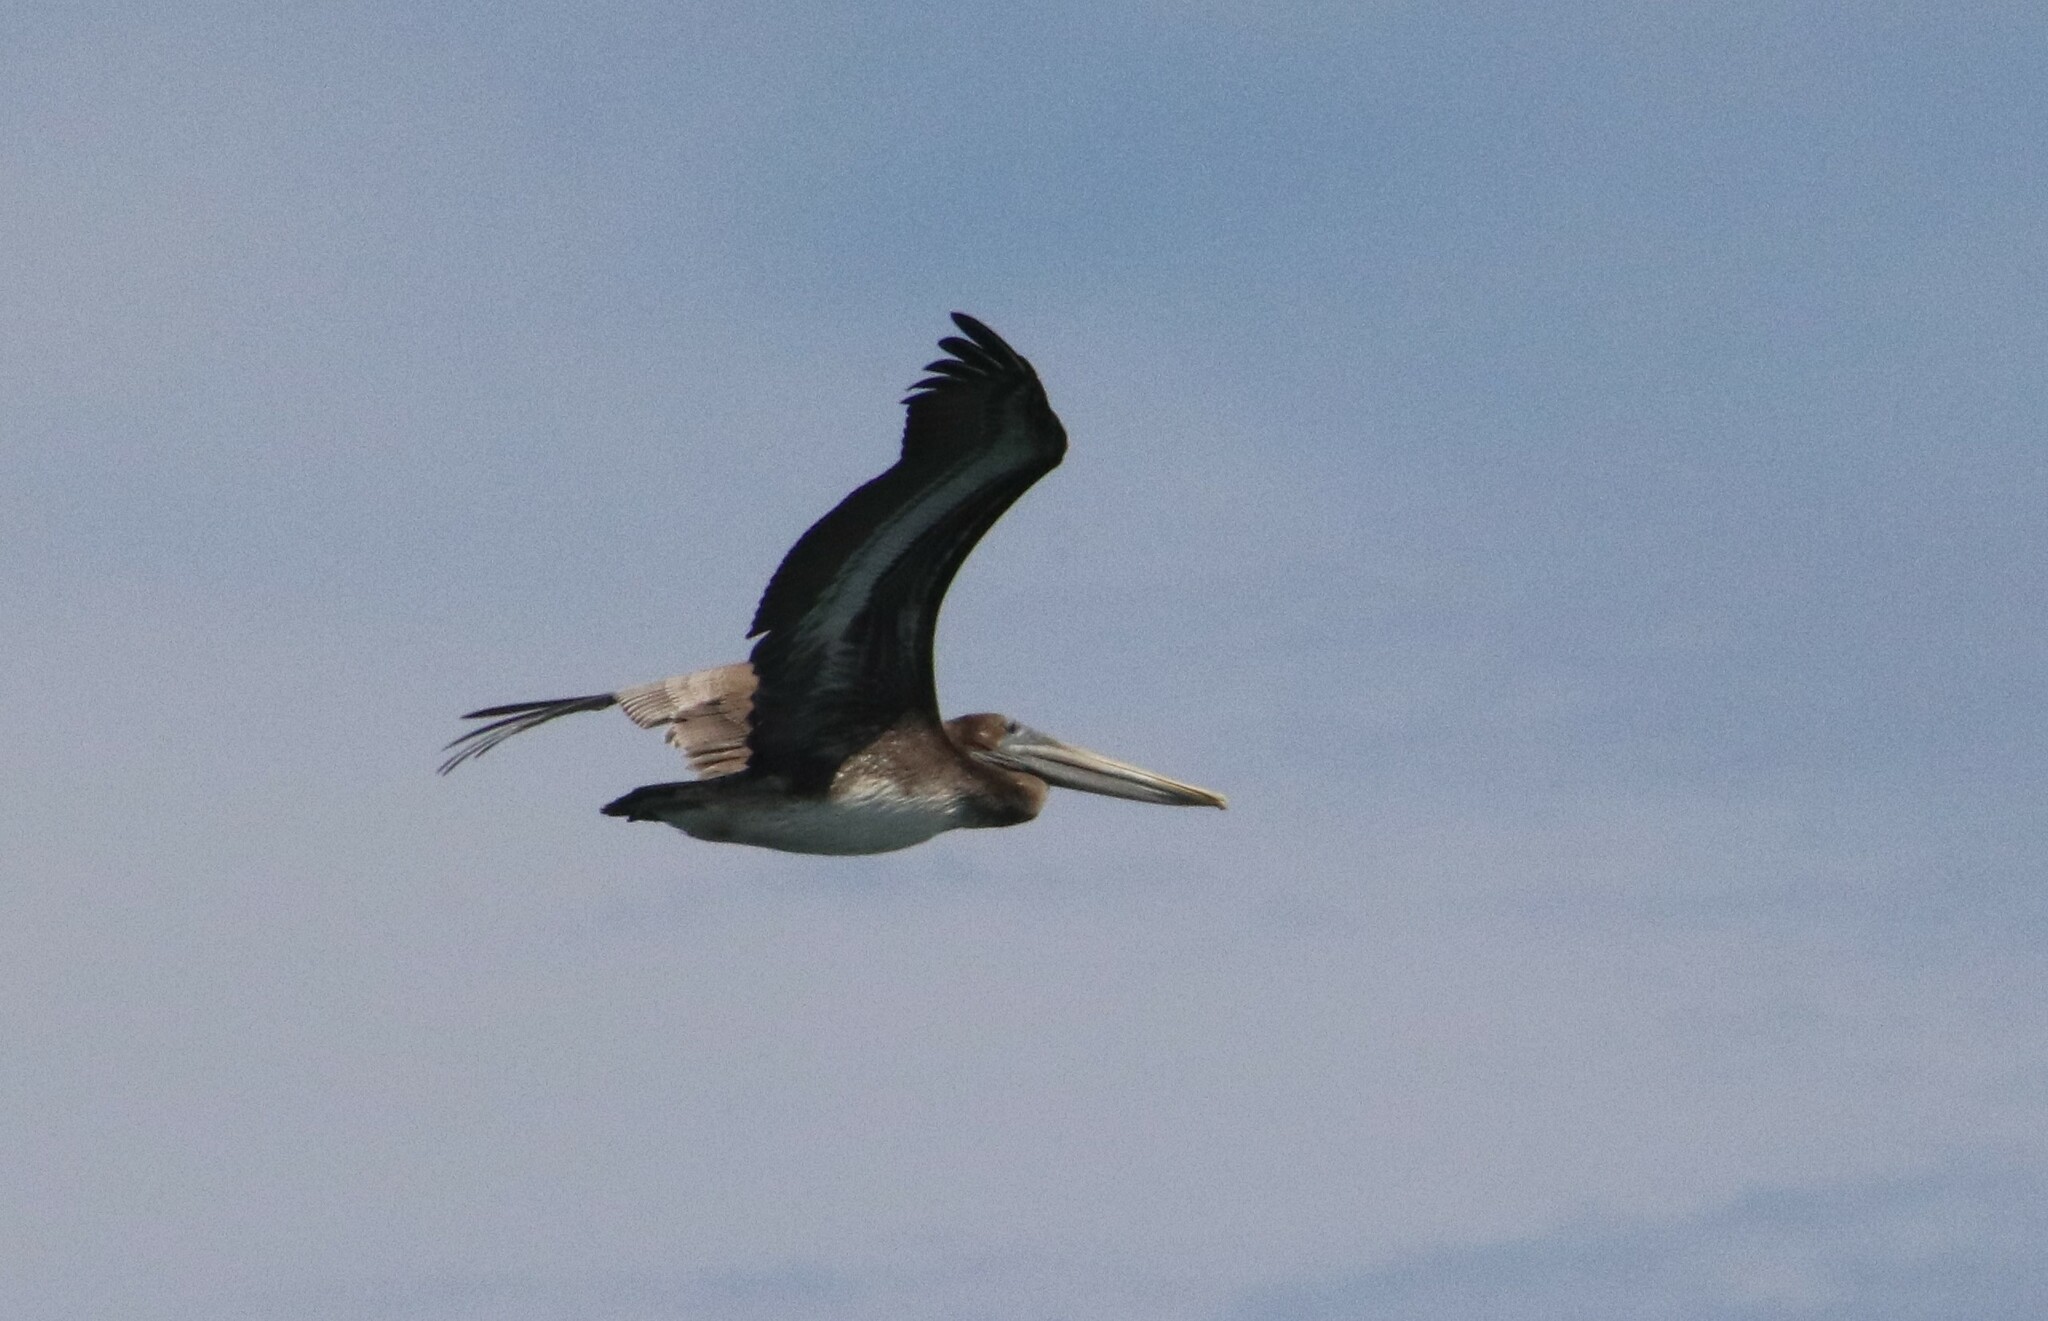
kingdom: Animalia
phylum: Chordata
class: Aves
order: Pelecaniformes
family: Pelecanidae
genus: Pelecanus
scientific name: Pelecanus occidentalis
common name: Brown pelican
